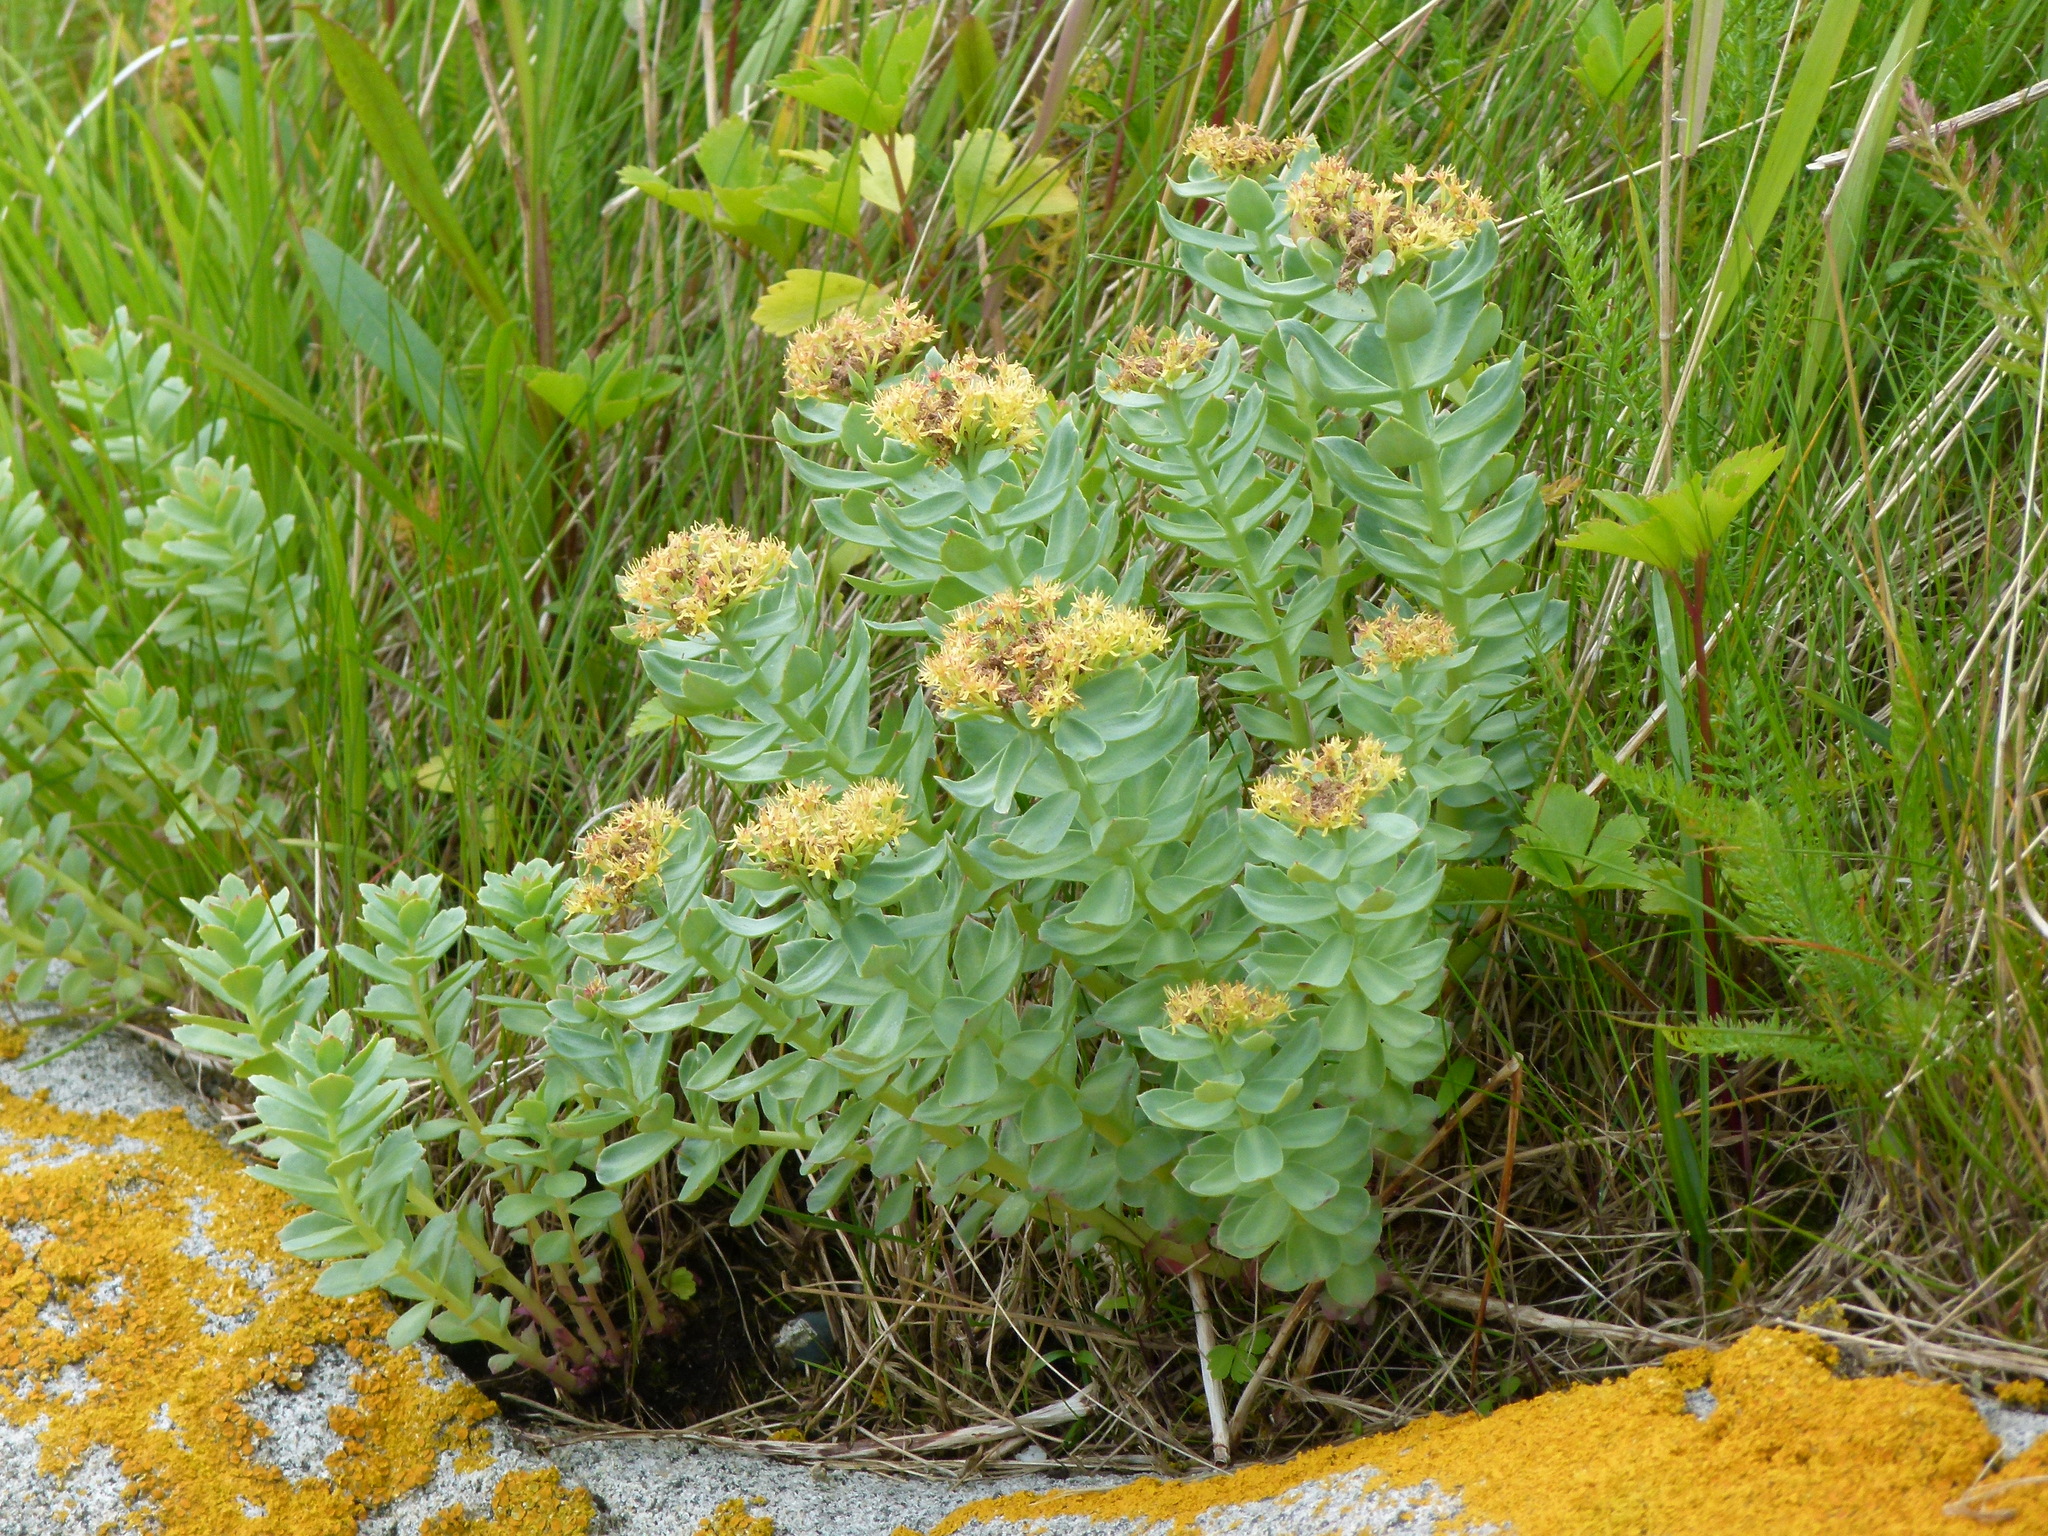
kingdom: Plantae
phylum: Tracheophyta
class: Magnoliopsida
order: Saxifragales
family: Crassulaceae
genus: Rhodiola
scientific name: Rhodiola rosea
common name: Roseroot
